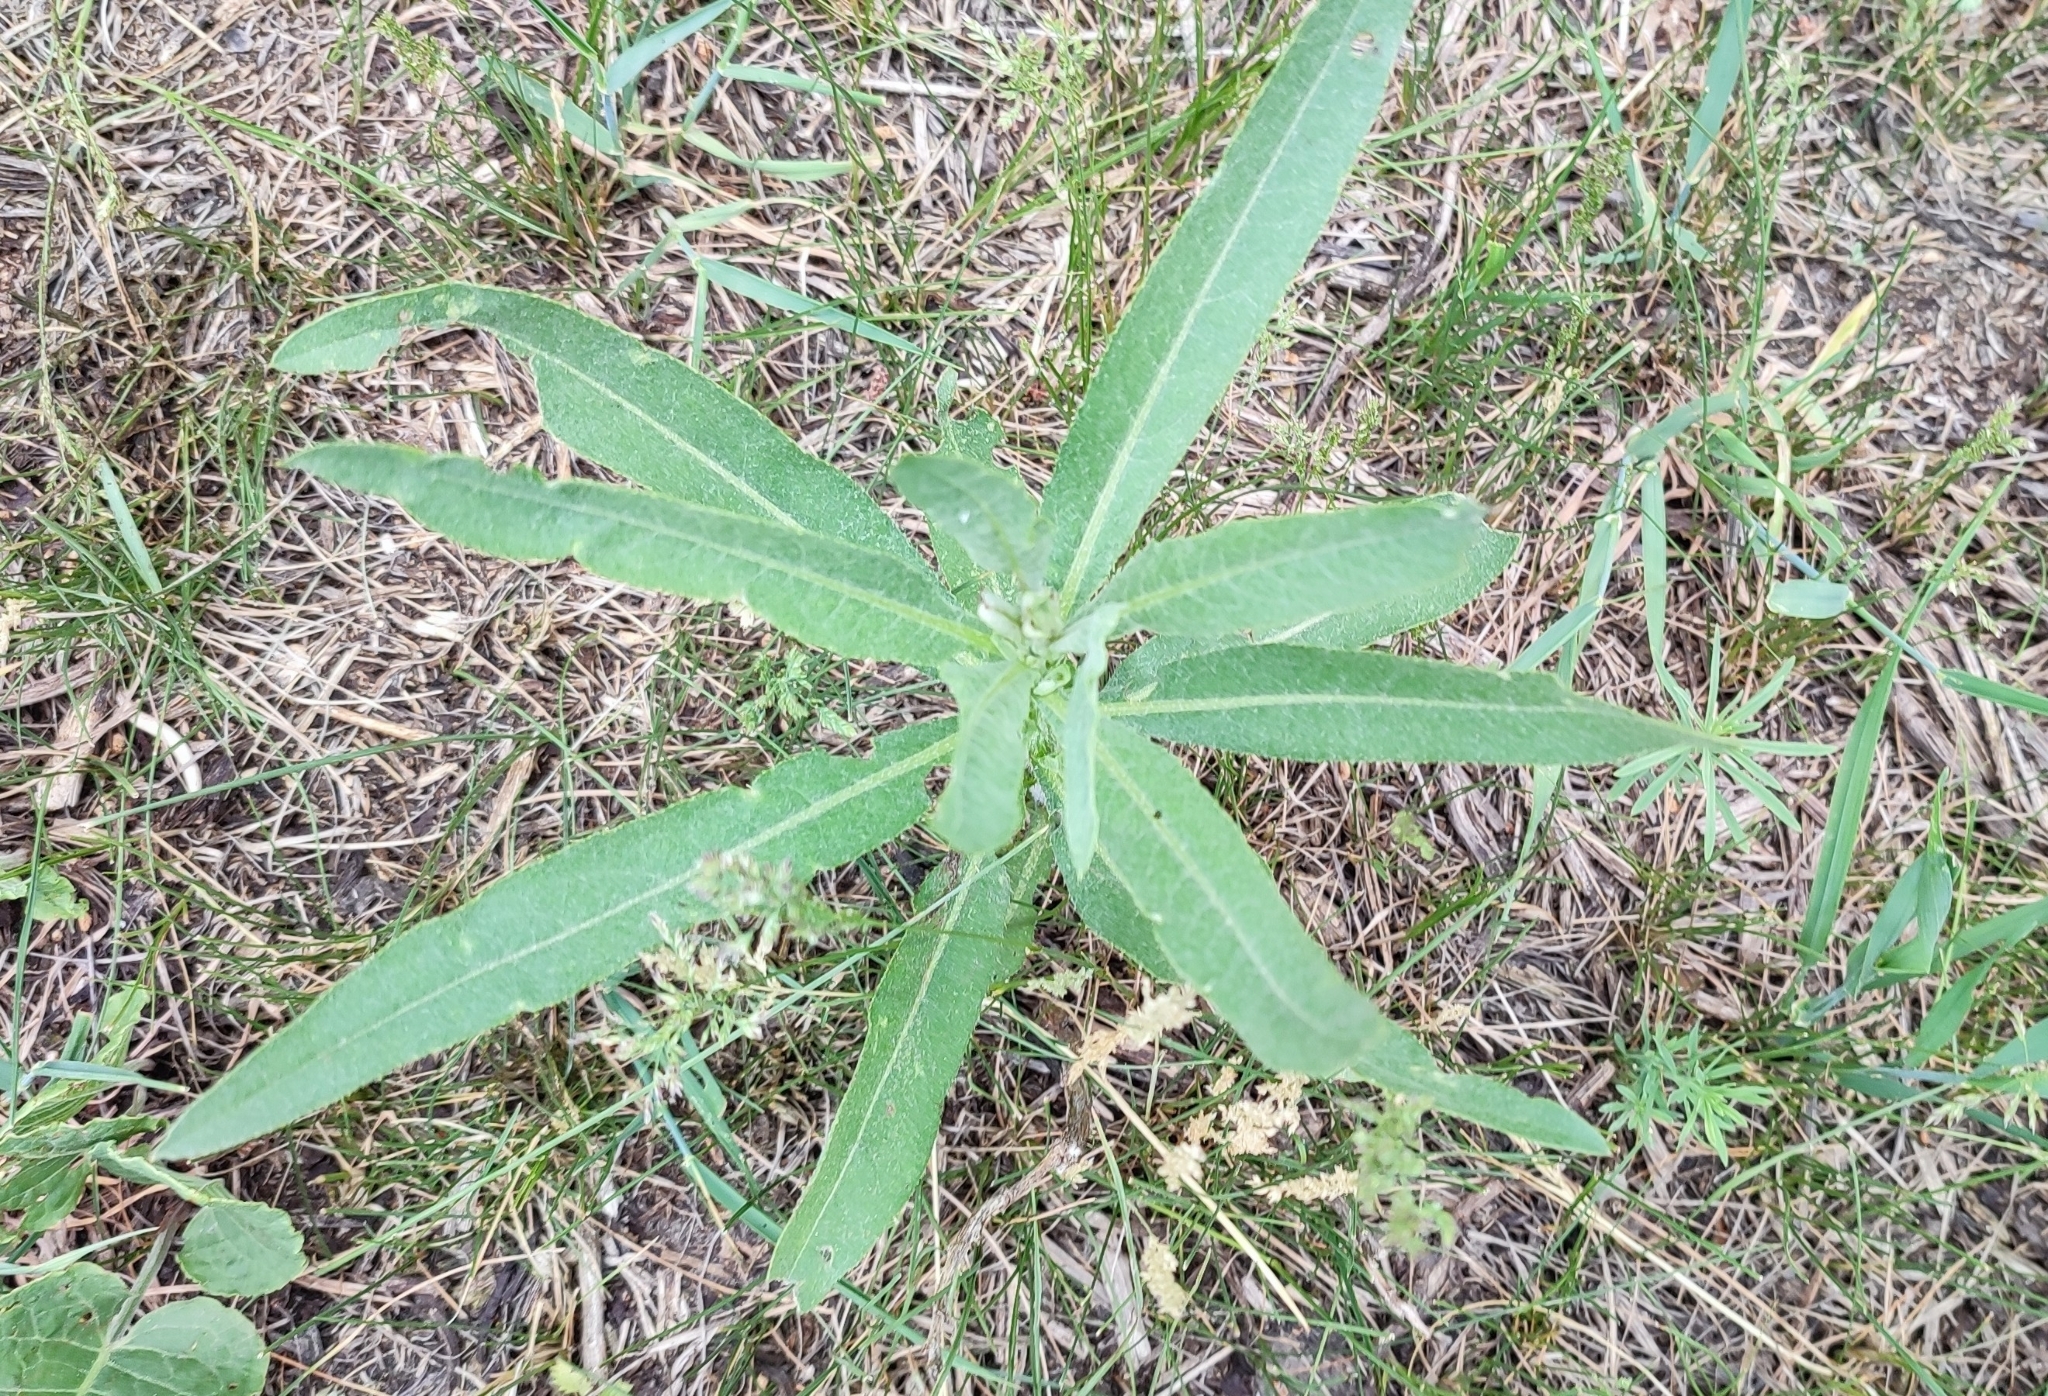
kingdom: Plantae
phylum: Tracheophyta
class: Magnoliopsida
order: Asterales
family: Asteraceae
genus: Cirsium
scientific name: Cirsium arvense
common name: Creeping thistle
